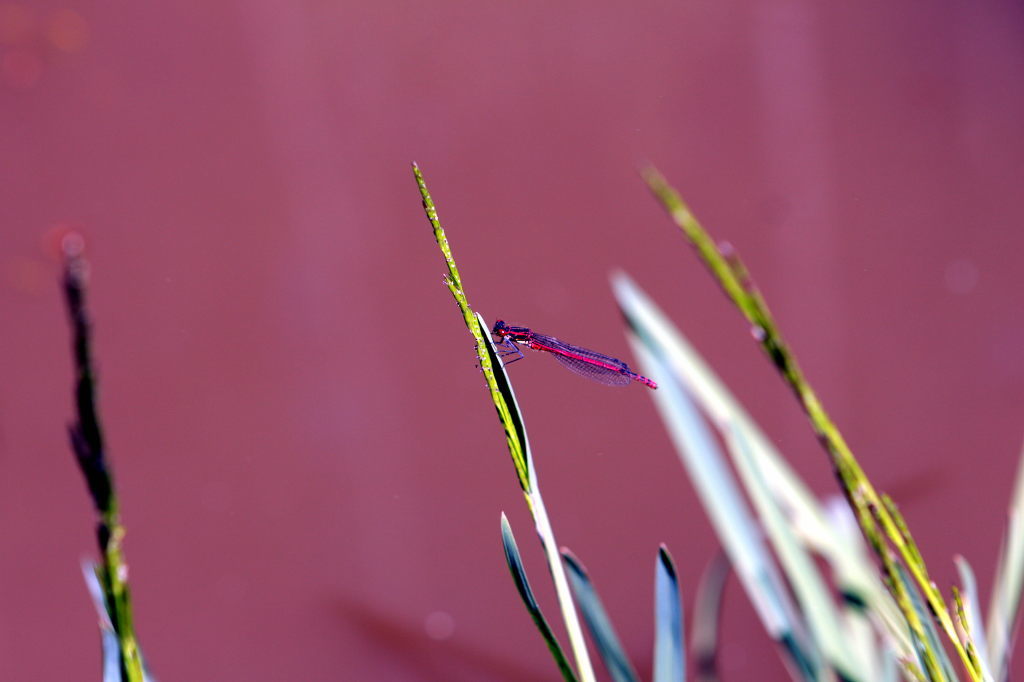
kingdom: Animalia
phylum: Arthropoda
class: Insecta
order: Odonata
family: Coenagrionidae
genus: Pyrrhosoma
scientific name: Pyrrhosoma nymphula
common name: Large red damsel
